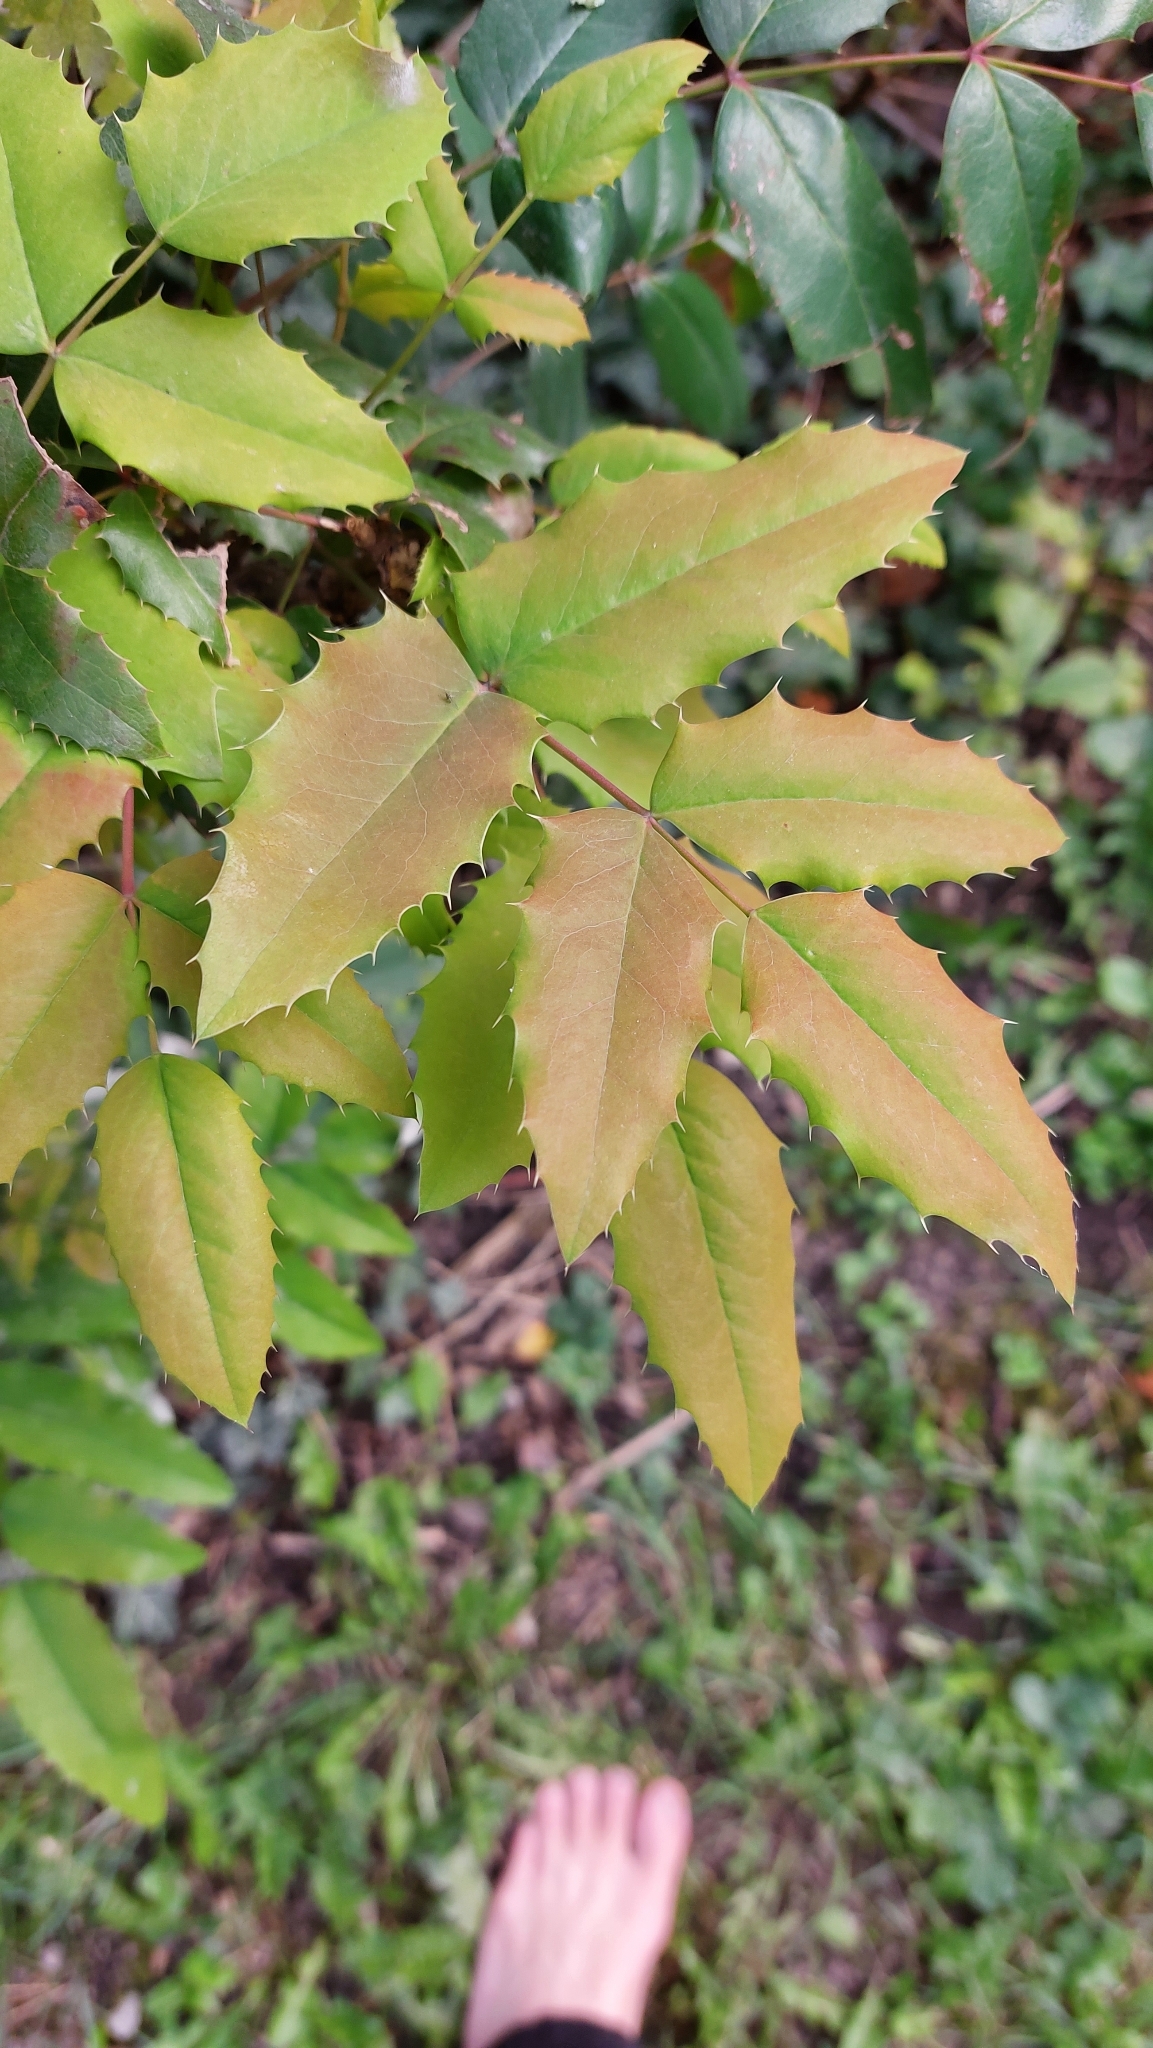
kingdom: Plantae
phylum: Tracheophyta
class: Magnoliopsida
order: Ranunculales
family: Berberidaceae
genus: Mahonia
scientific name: Mahonia aquifolium
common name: Oregon-grape
